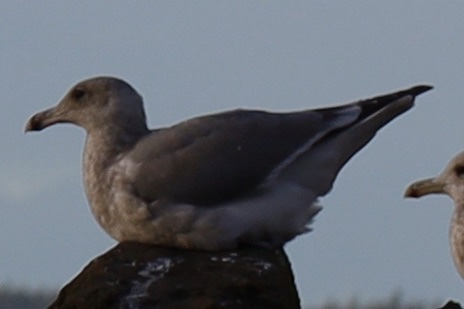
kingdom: Animalia
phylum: Chordata
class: Aves
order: Charadriiformes
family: Laridae
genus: Larus
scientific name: Larus
